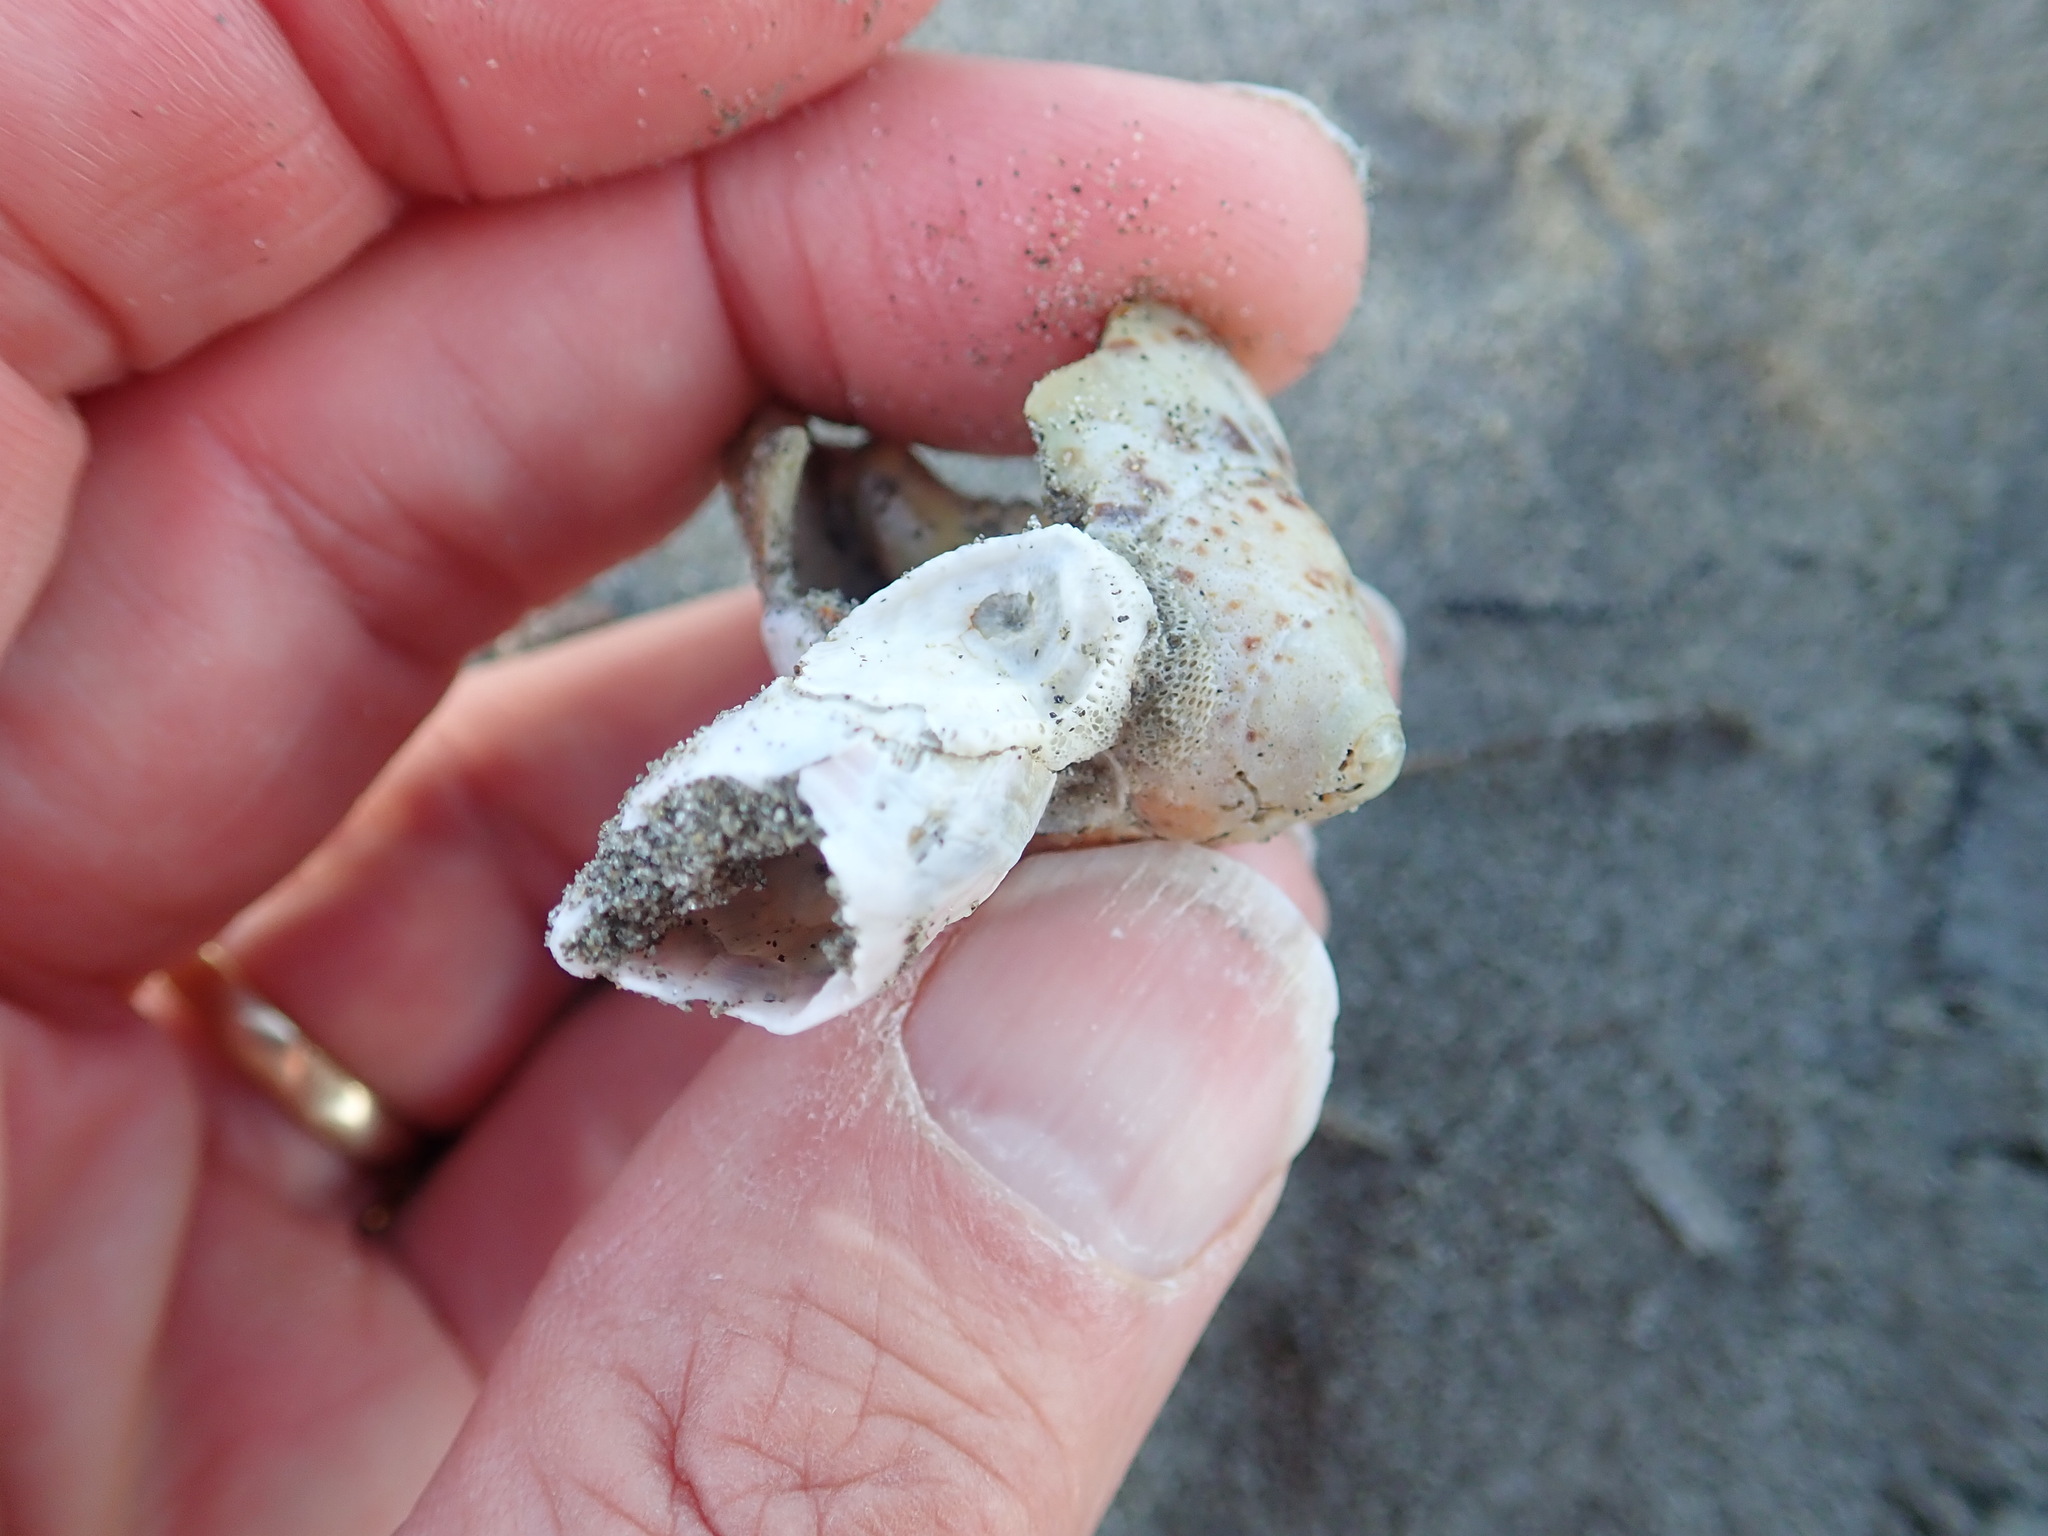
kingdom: Animalia
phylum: Arthropoda
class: Maxillopoda
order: Sessilia
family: Balanidae
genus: Notomegabalanus
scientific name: Notomegabalanus decorus
